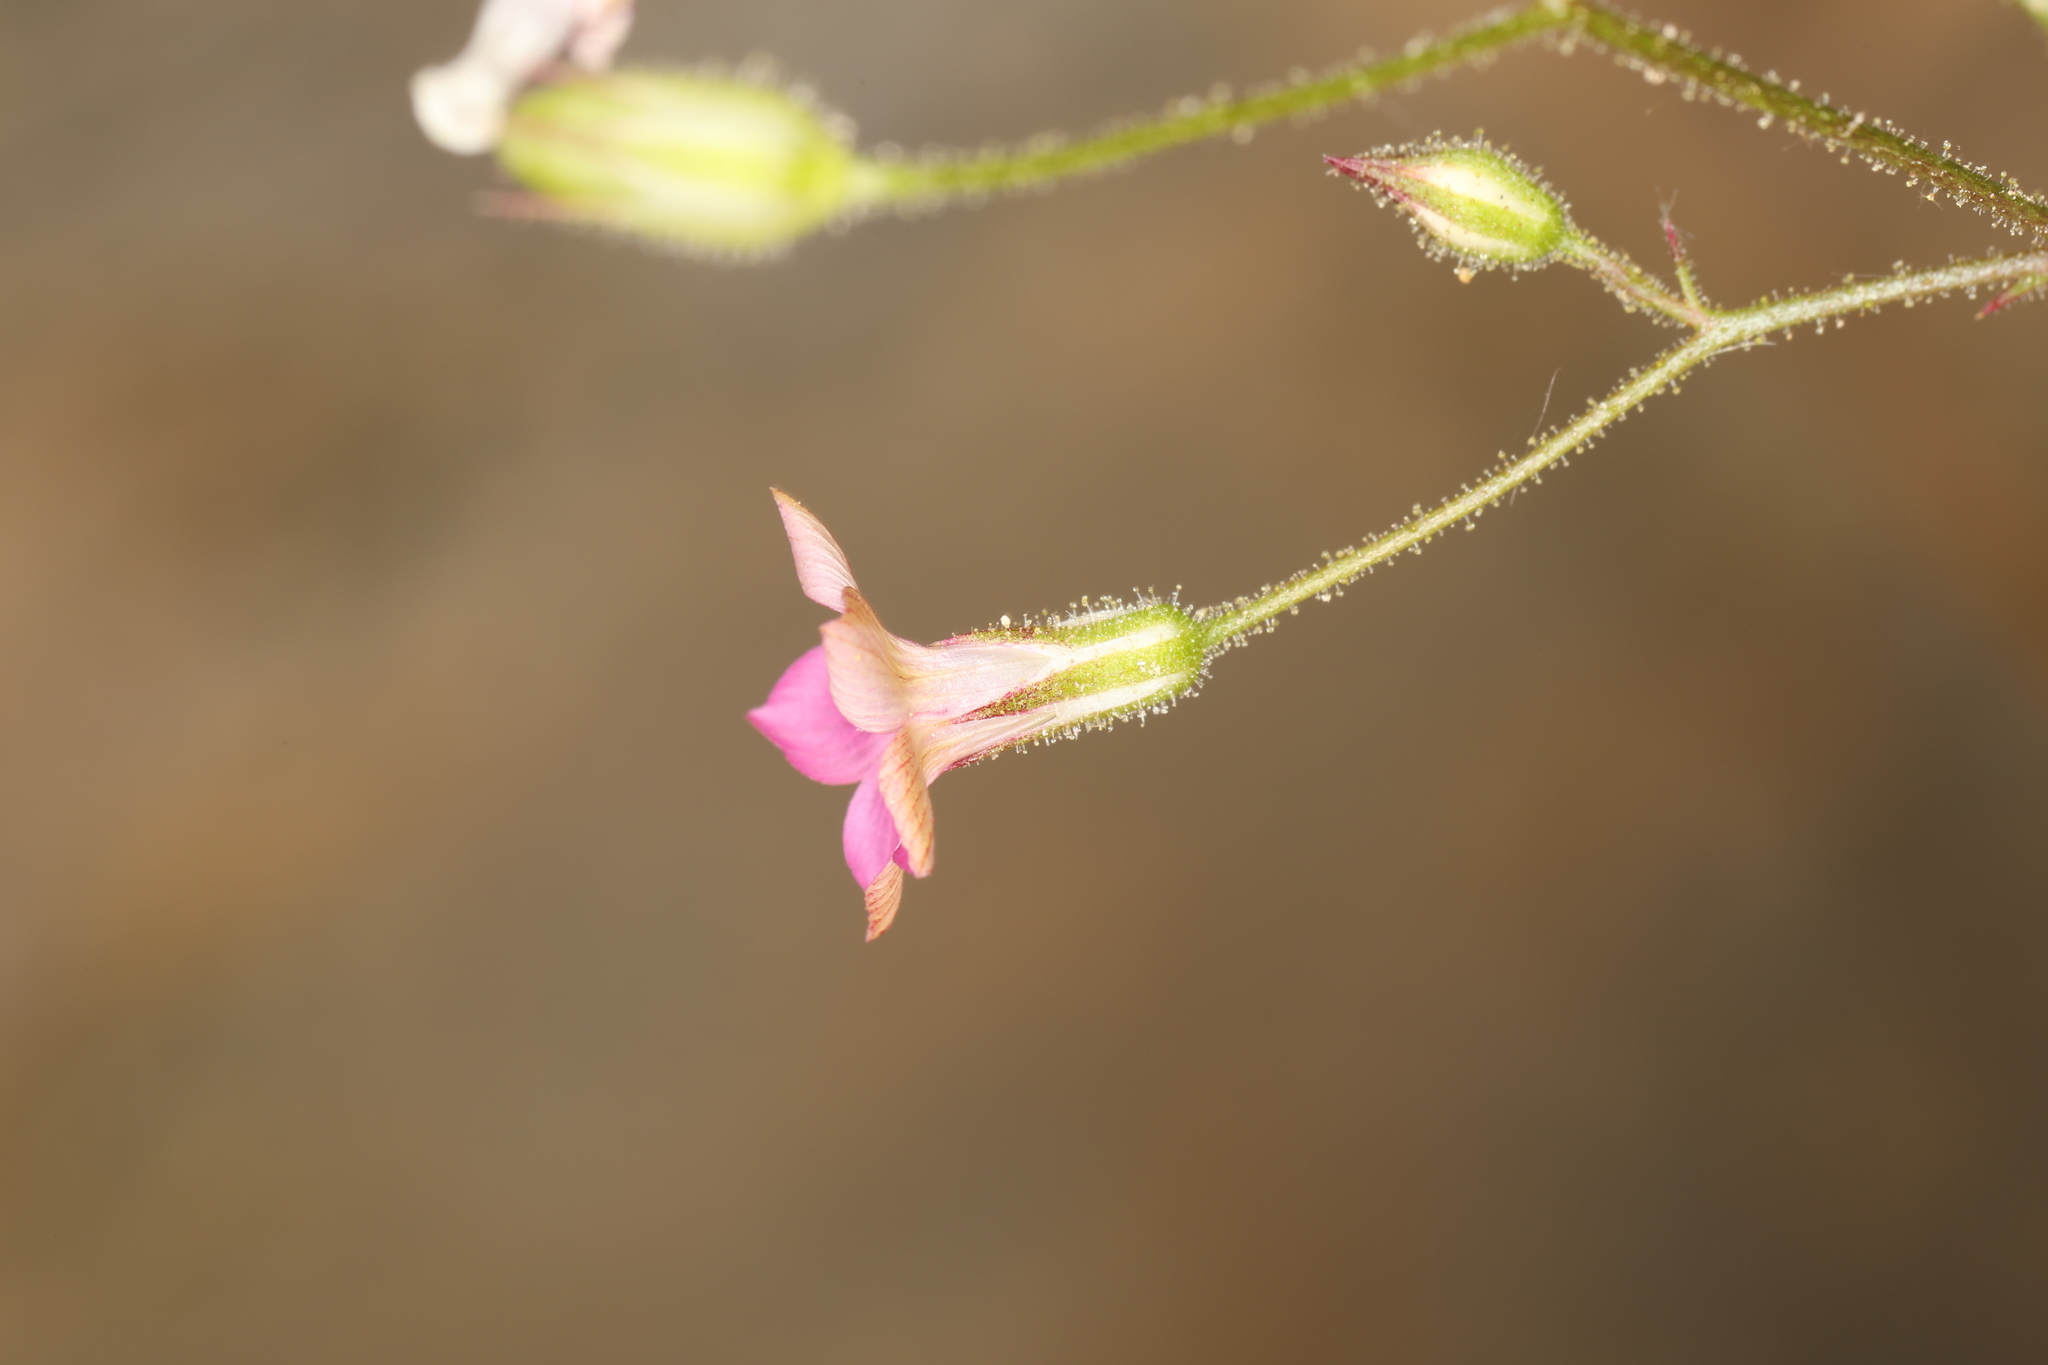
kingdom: Plantae
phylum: Tracheophyta
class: Magnoliopsida
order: Ericales
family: Polemoniaceae
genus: Aliciella
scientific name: Aliciella latifolia
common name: Broad-leaf gilia
